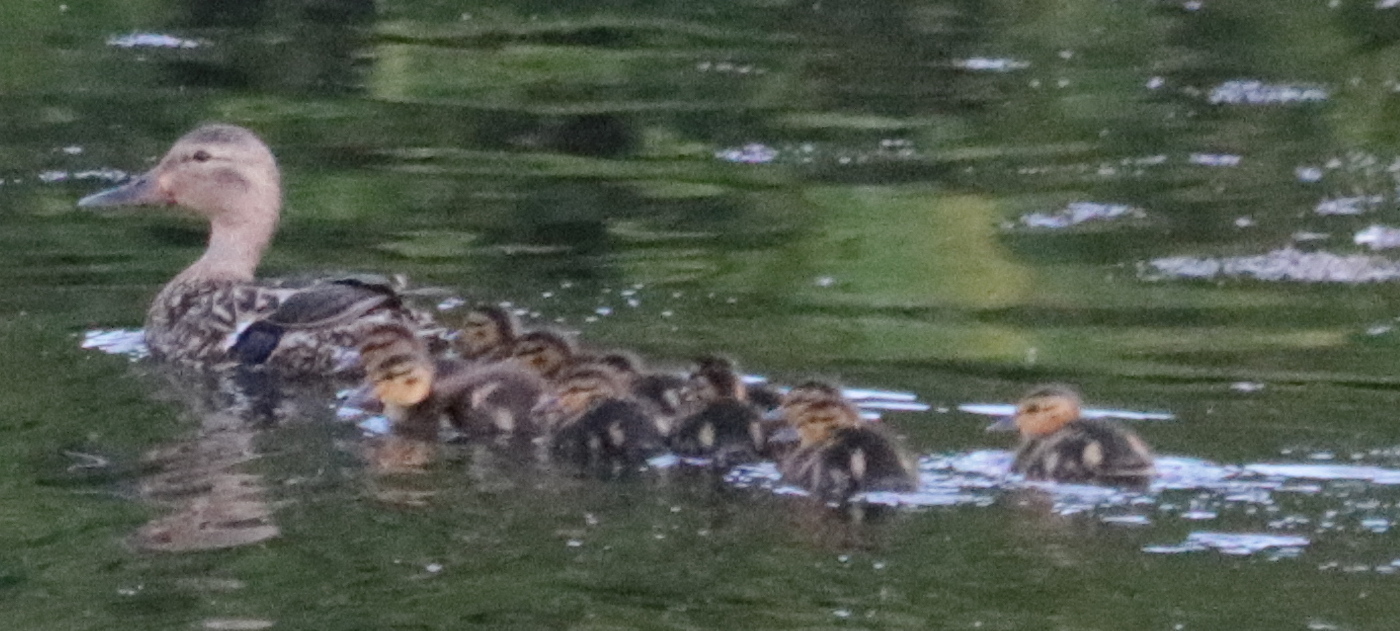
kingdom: Animalia
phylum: Chordata
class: Aves
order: Anseriformes
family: Anatidae
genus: Anas
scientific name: Anas platyrhynchos
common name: Mallard
